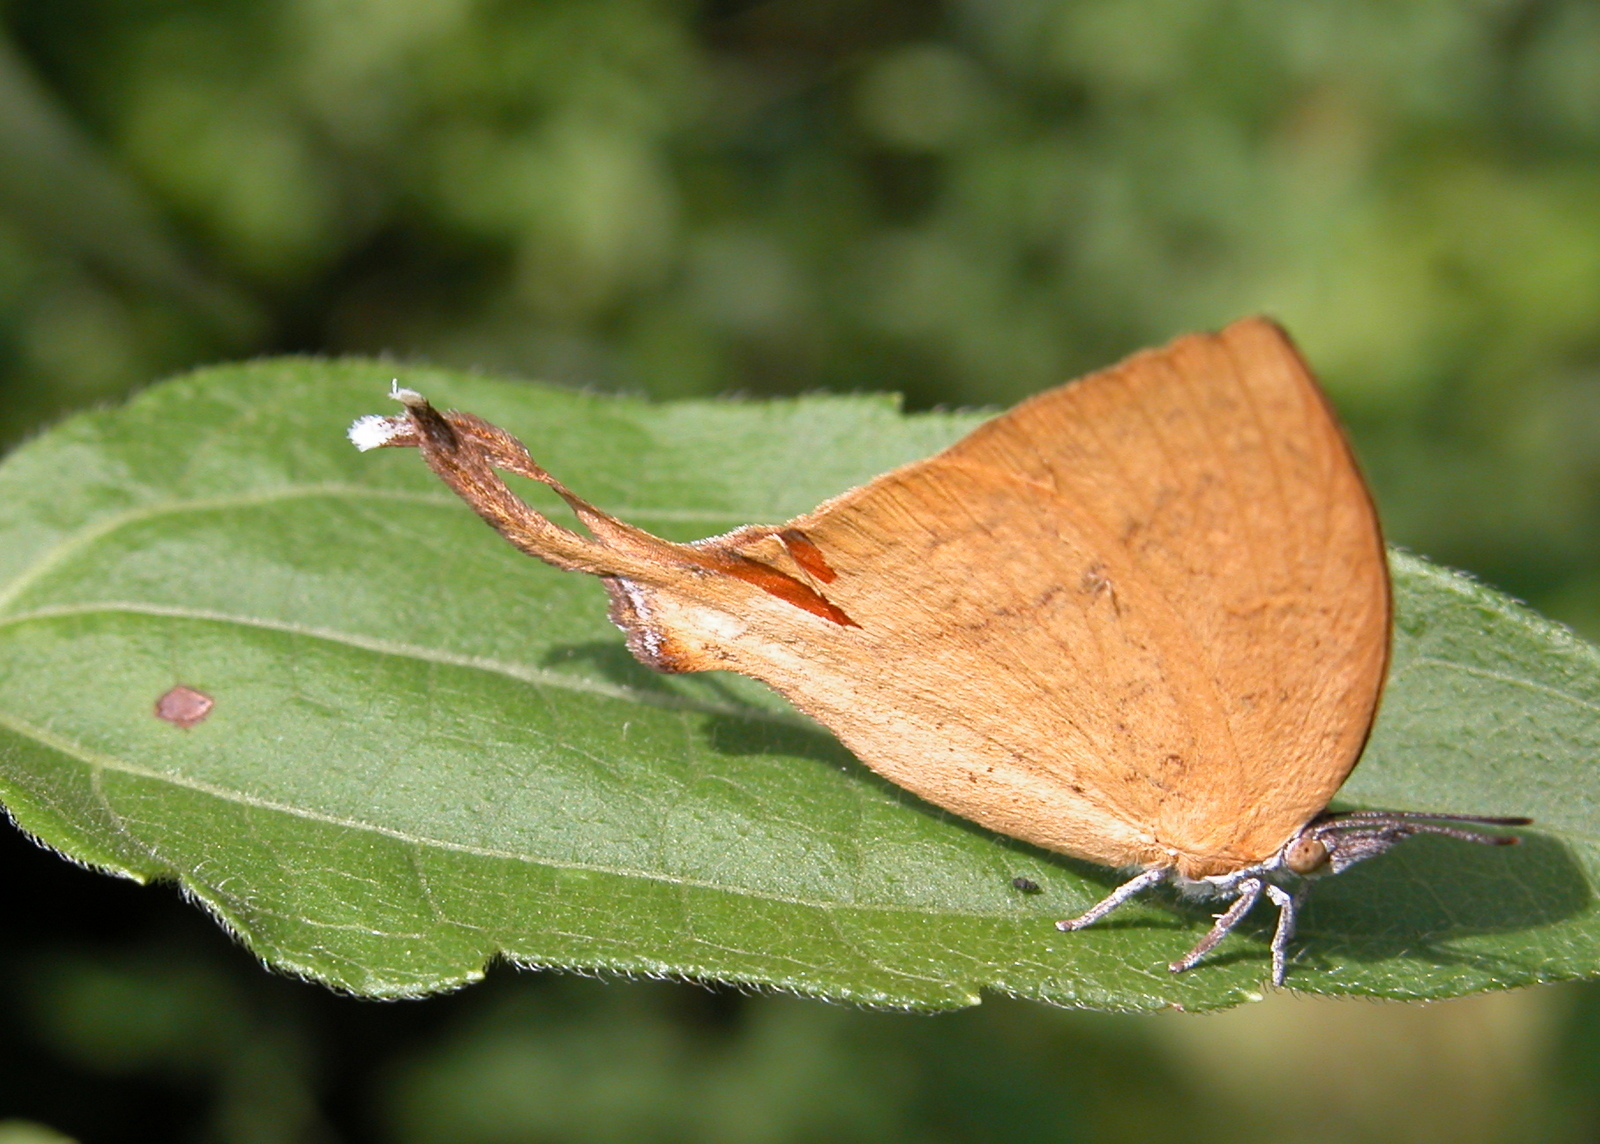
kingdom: Animalia
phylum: Arthropoda
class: Insecta
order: Lepidoptera
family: Lycaenidae
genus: Loxura
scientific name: Loxura atymnus
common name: Common yamfly
